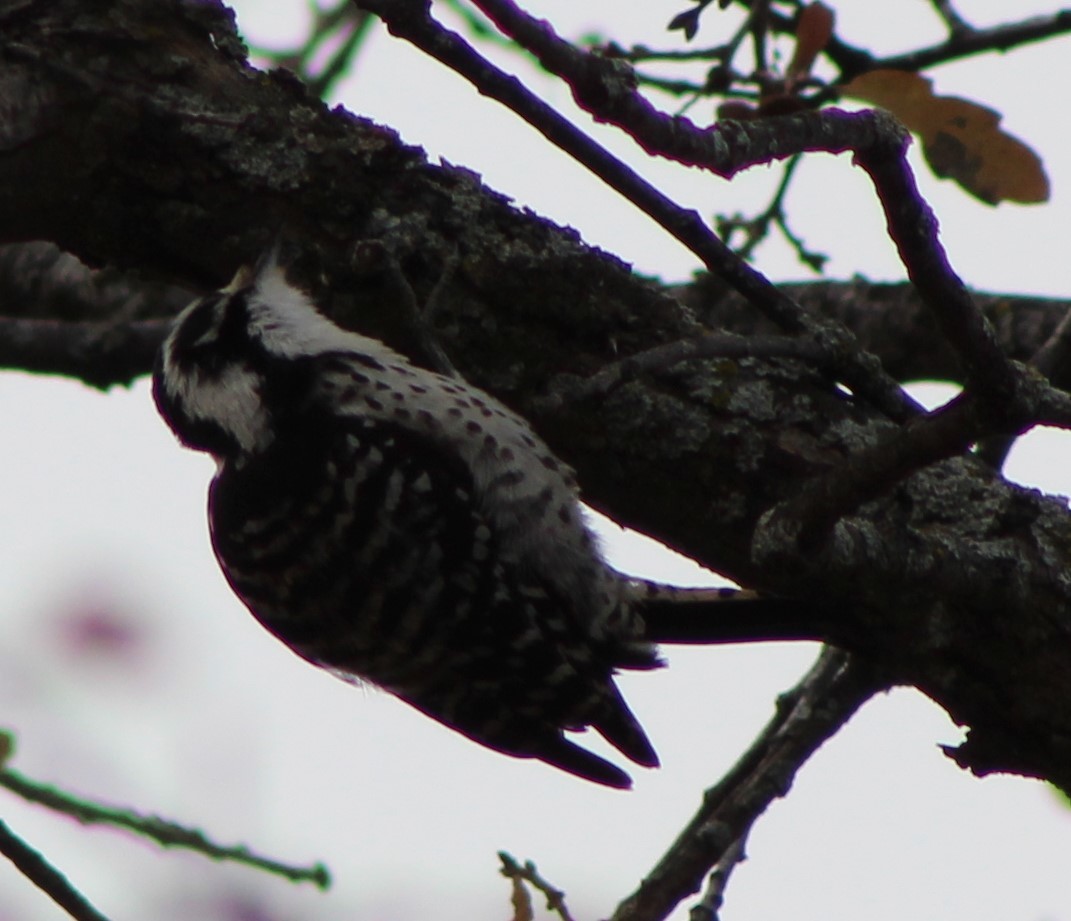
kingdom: Animalia
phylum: Chordata
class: Aves
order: Piciformes
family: Picidae
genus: Dryobates
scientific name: Dryobates nuttallii
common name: Nuttall's woodpecker
